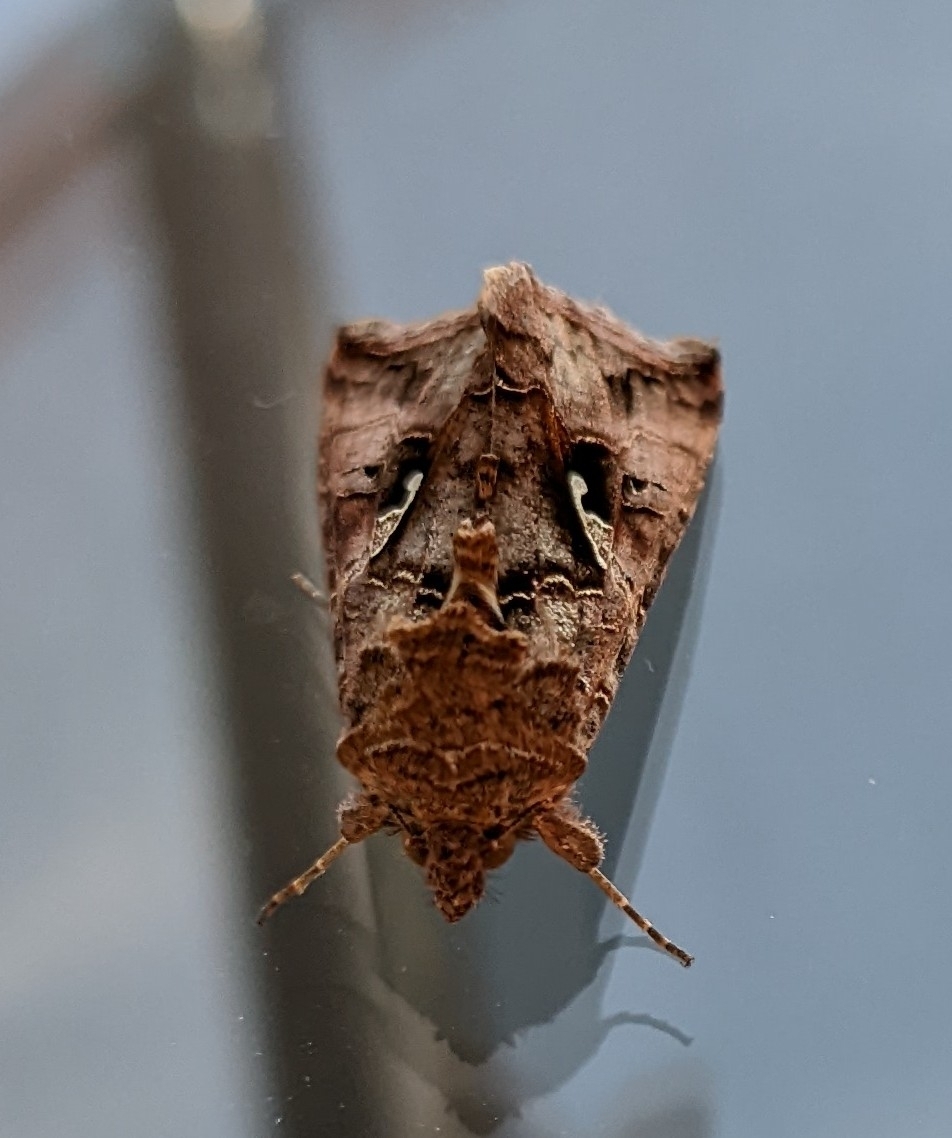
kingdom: Animalia
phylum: Arthropoda
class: Insecta
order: Lepidoptera
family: Noctuidae
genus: Autographa
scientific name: Autographa gamma
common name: Silver y
